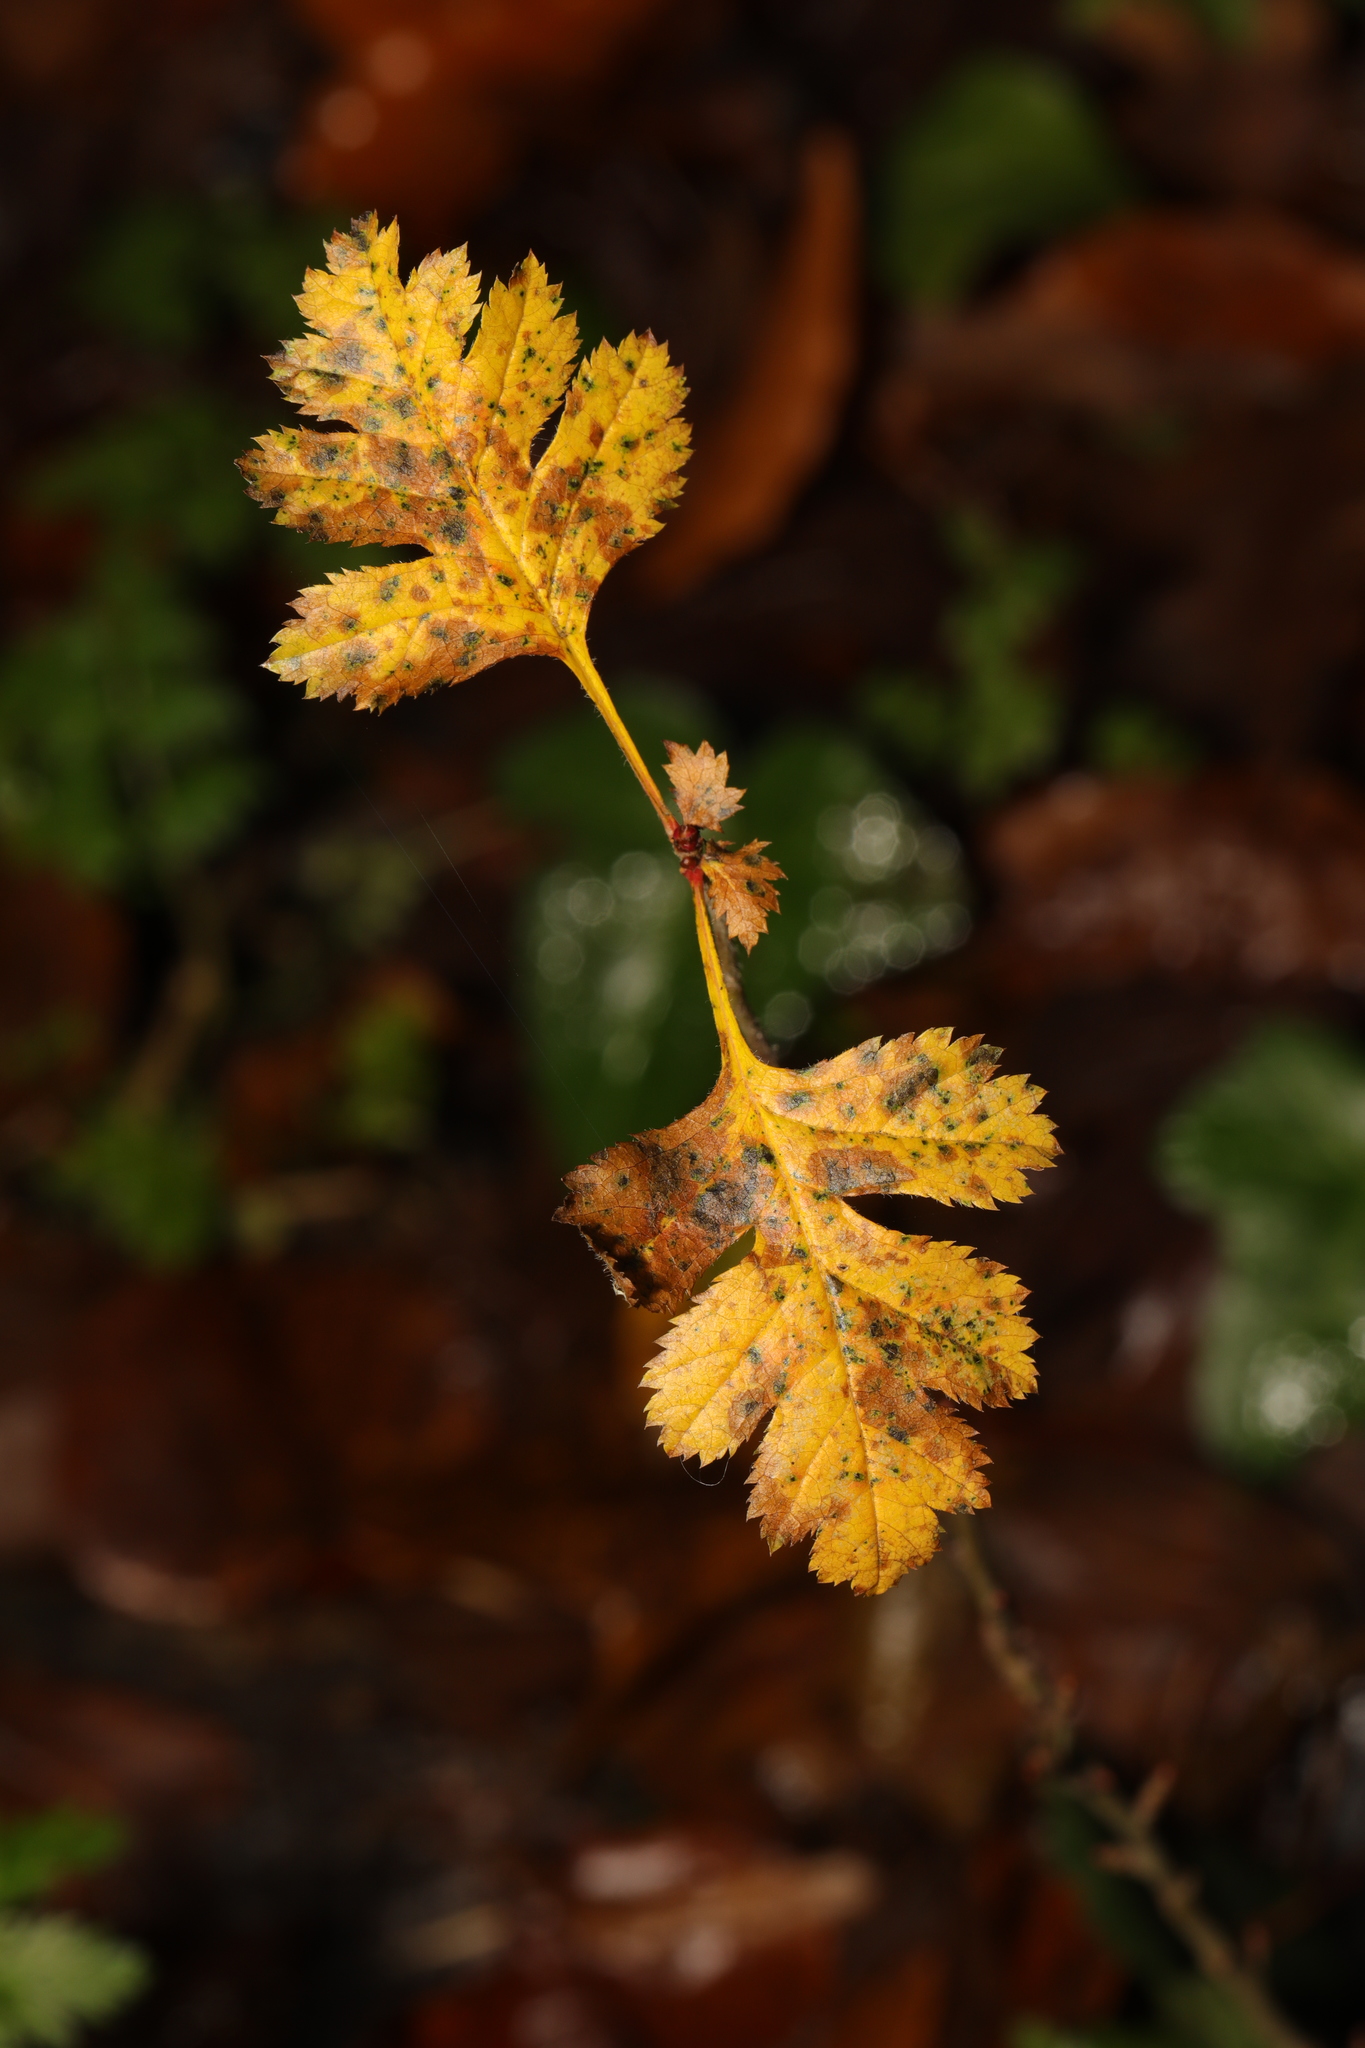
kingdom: Plantae
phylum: Tracheophyta
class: Magnoliopsida
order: Rosales
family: Rosaceae
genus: Crataegus
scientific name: Crataegus monogyna
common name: Hawthorn
